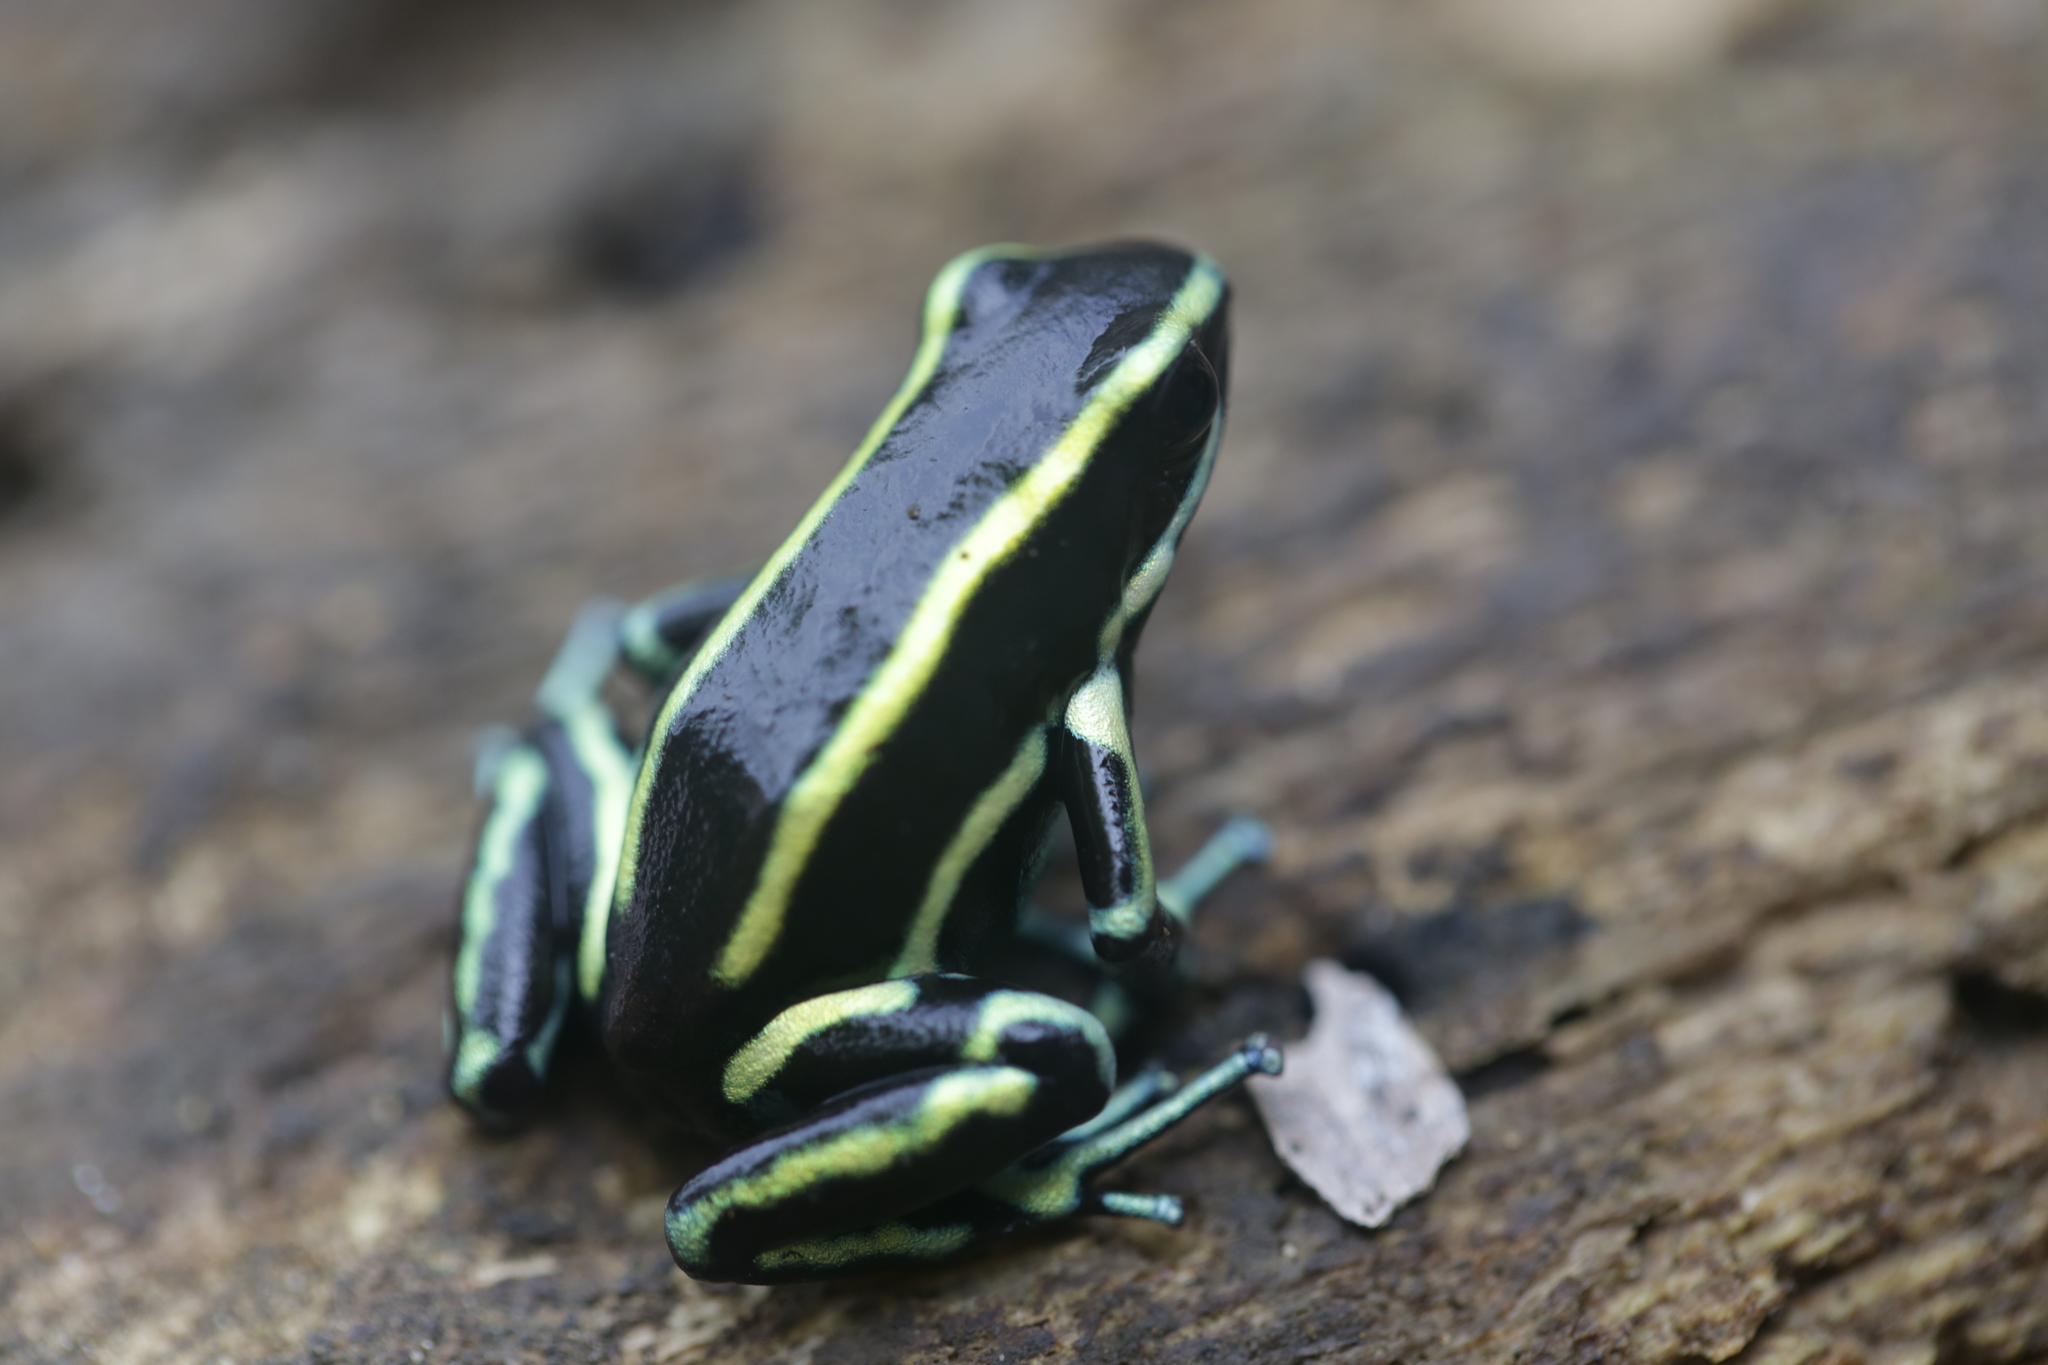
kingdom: Animalia
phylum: Chordata
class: Amphibia
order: Anura
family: Dendrobatidae
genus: Dendrobates
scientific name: Dendrobates truncatus
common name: Yellow-striped poison frog
